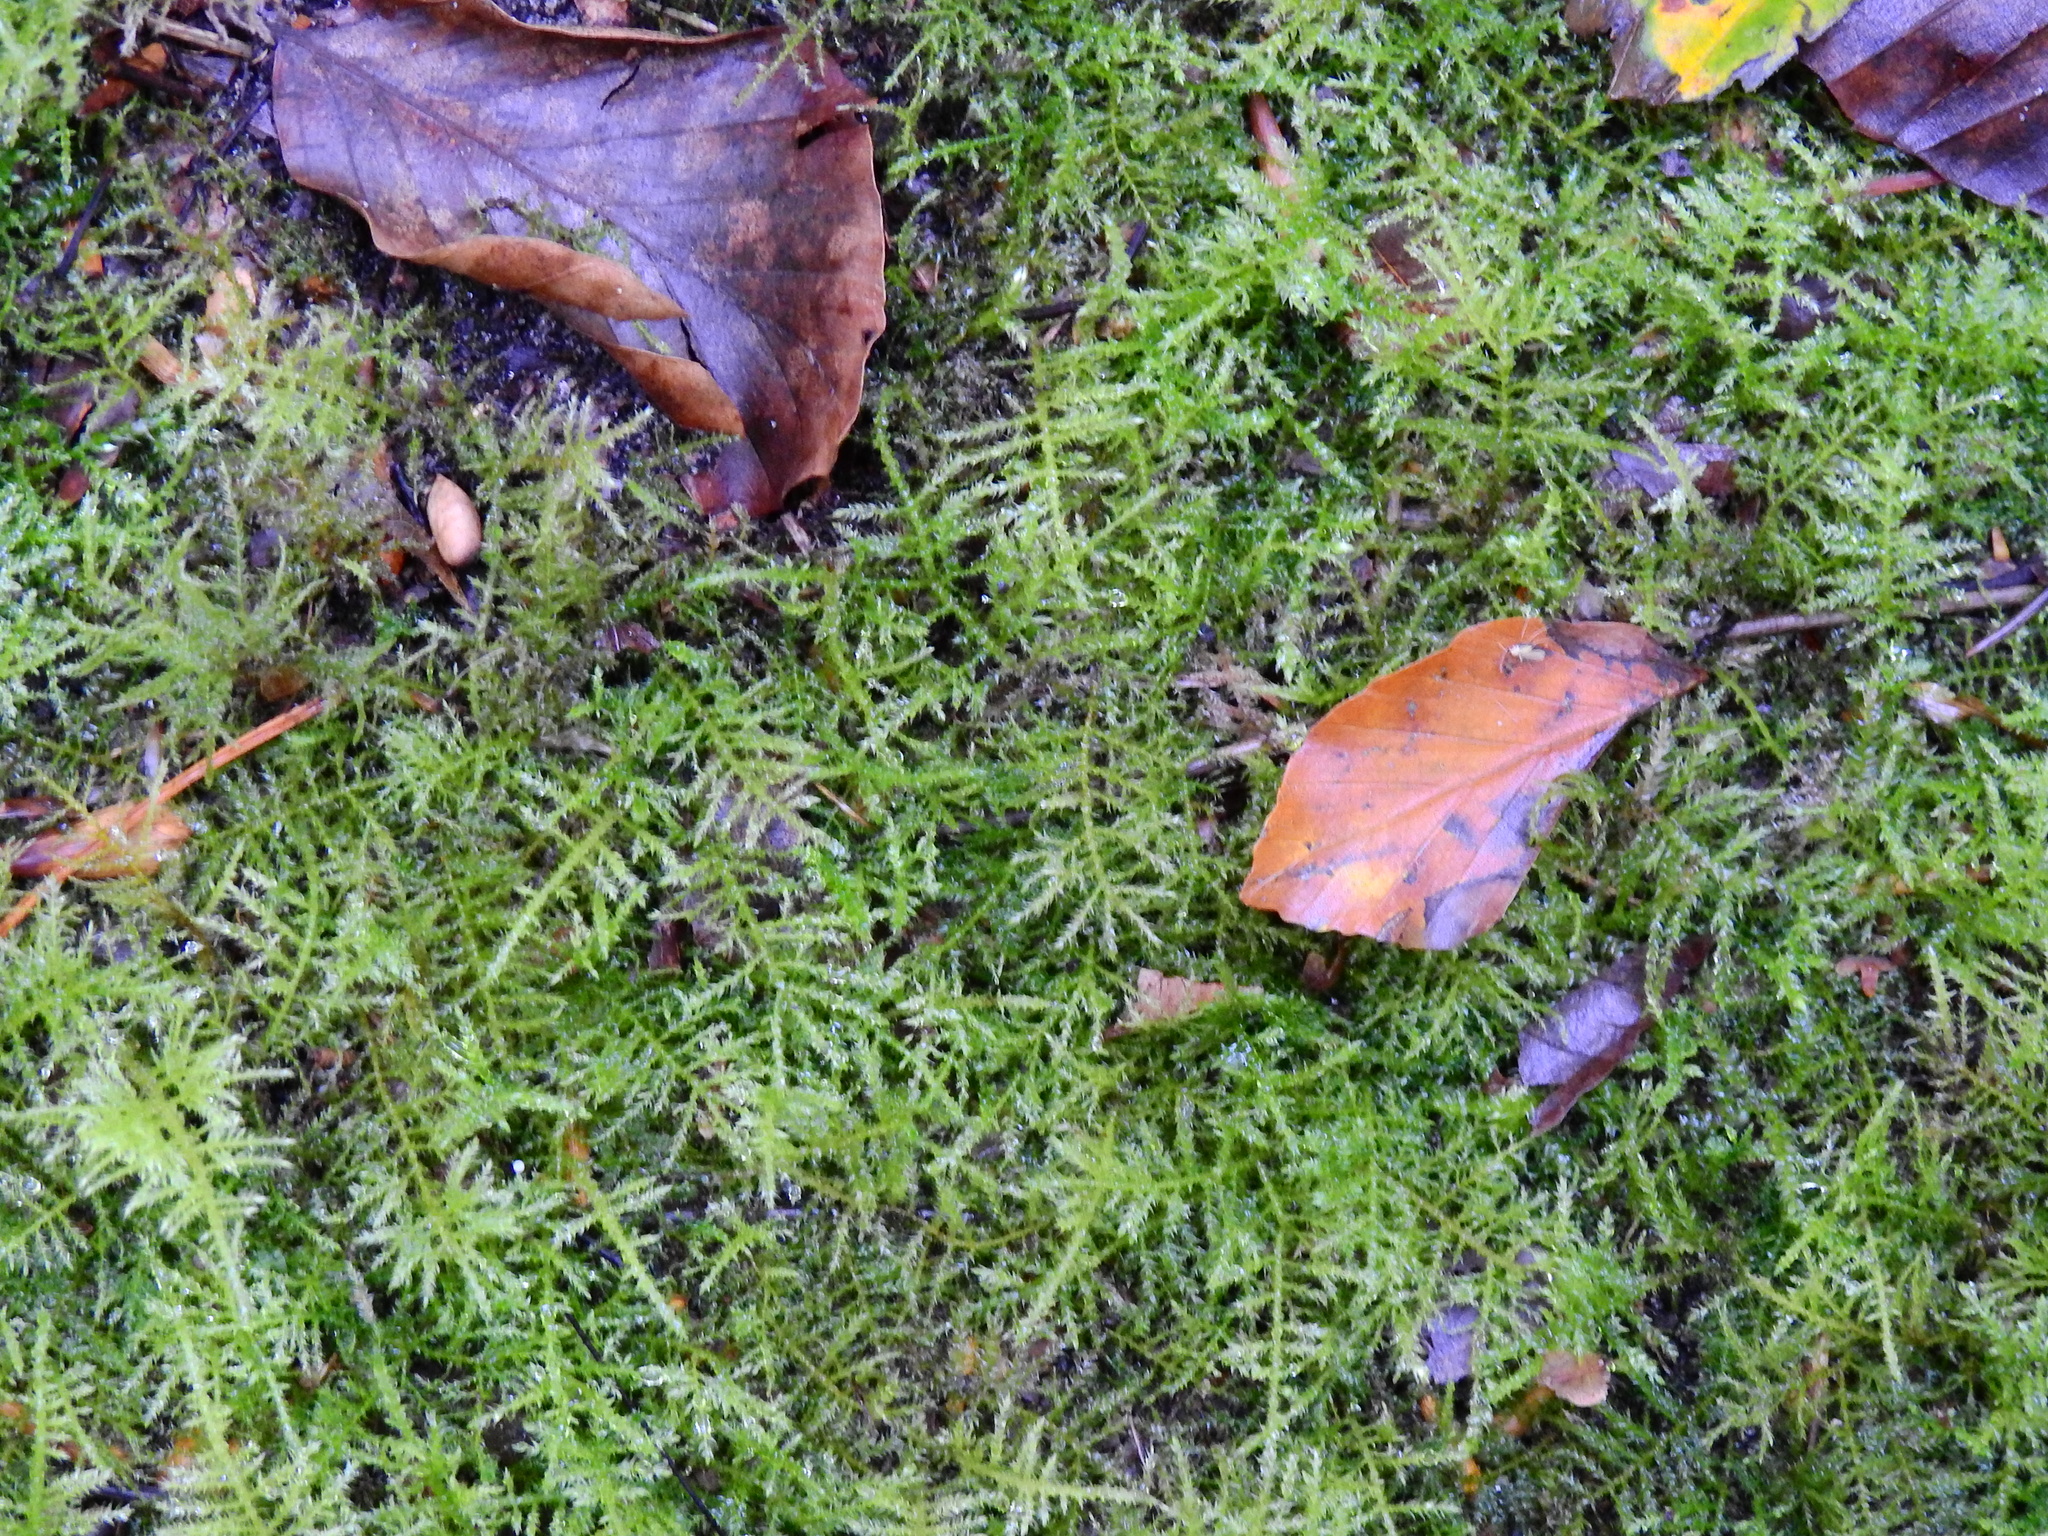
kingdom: Plantae
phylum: Bryophyta
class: Bryopsida
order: Hypnales
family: Brachytheciaceae
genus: Kindbergia
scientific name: Kindbergia praelonga
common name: Slender beaked moss
